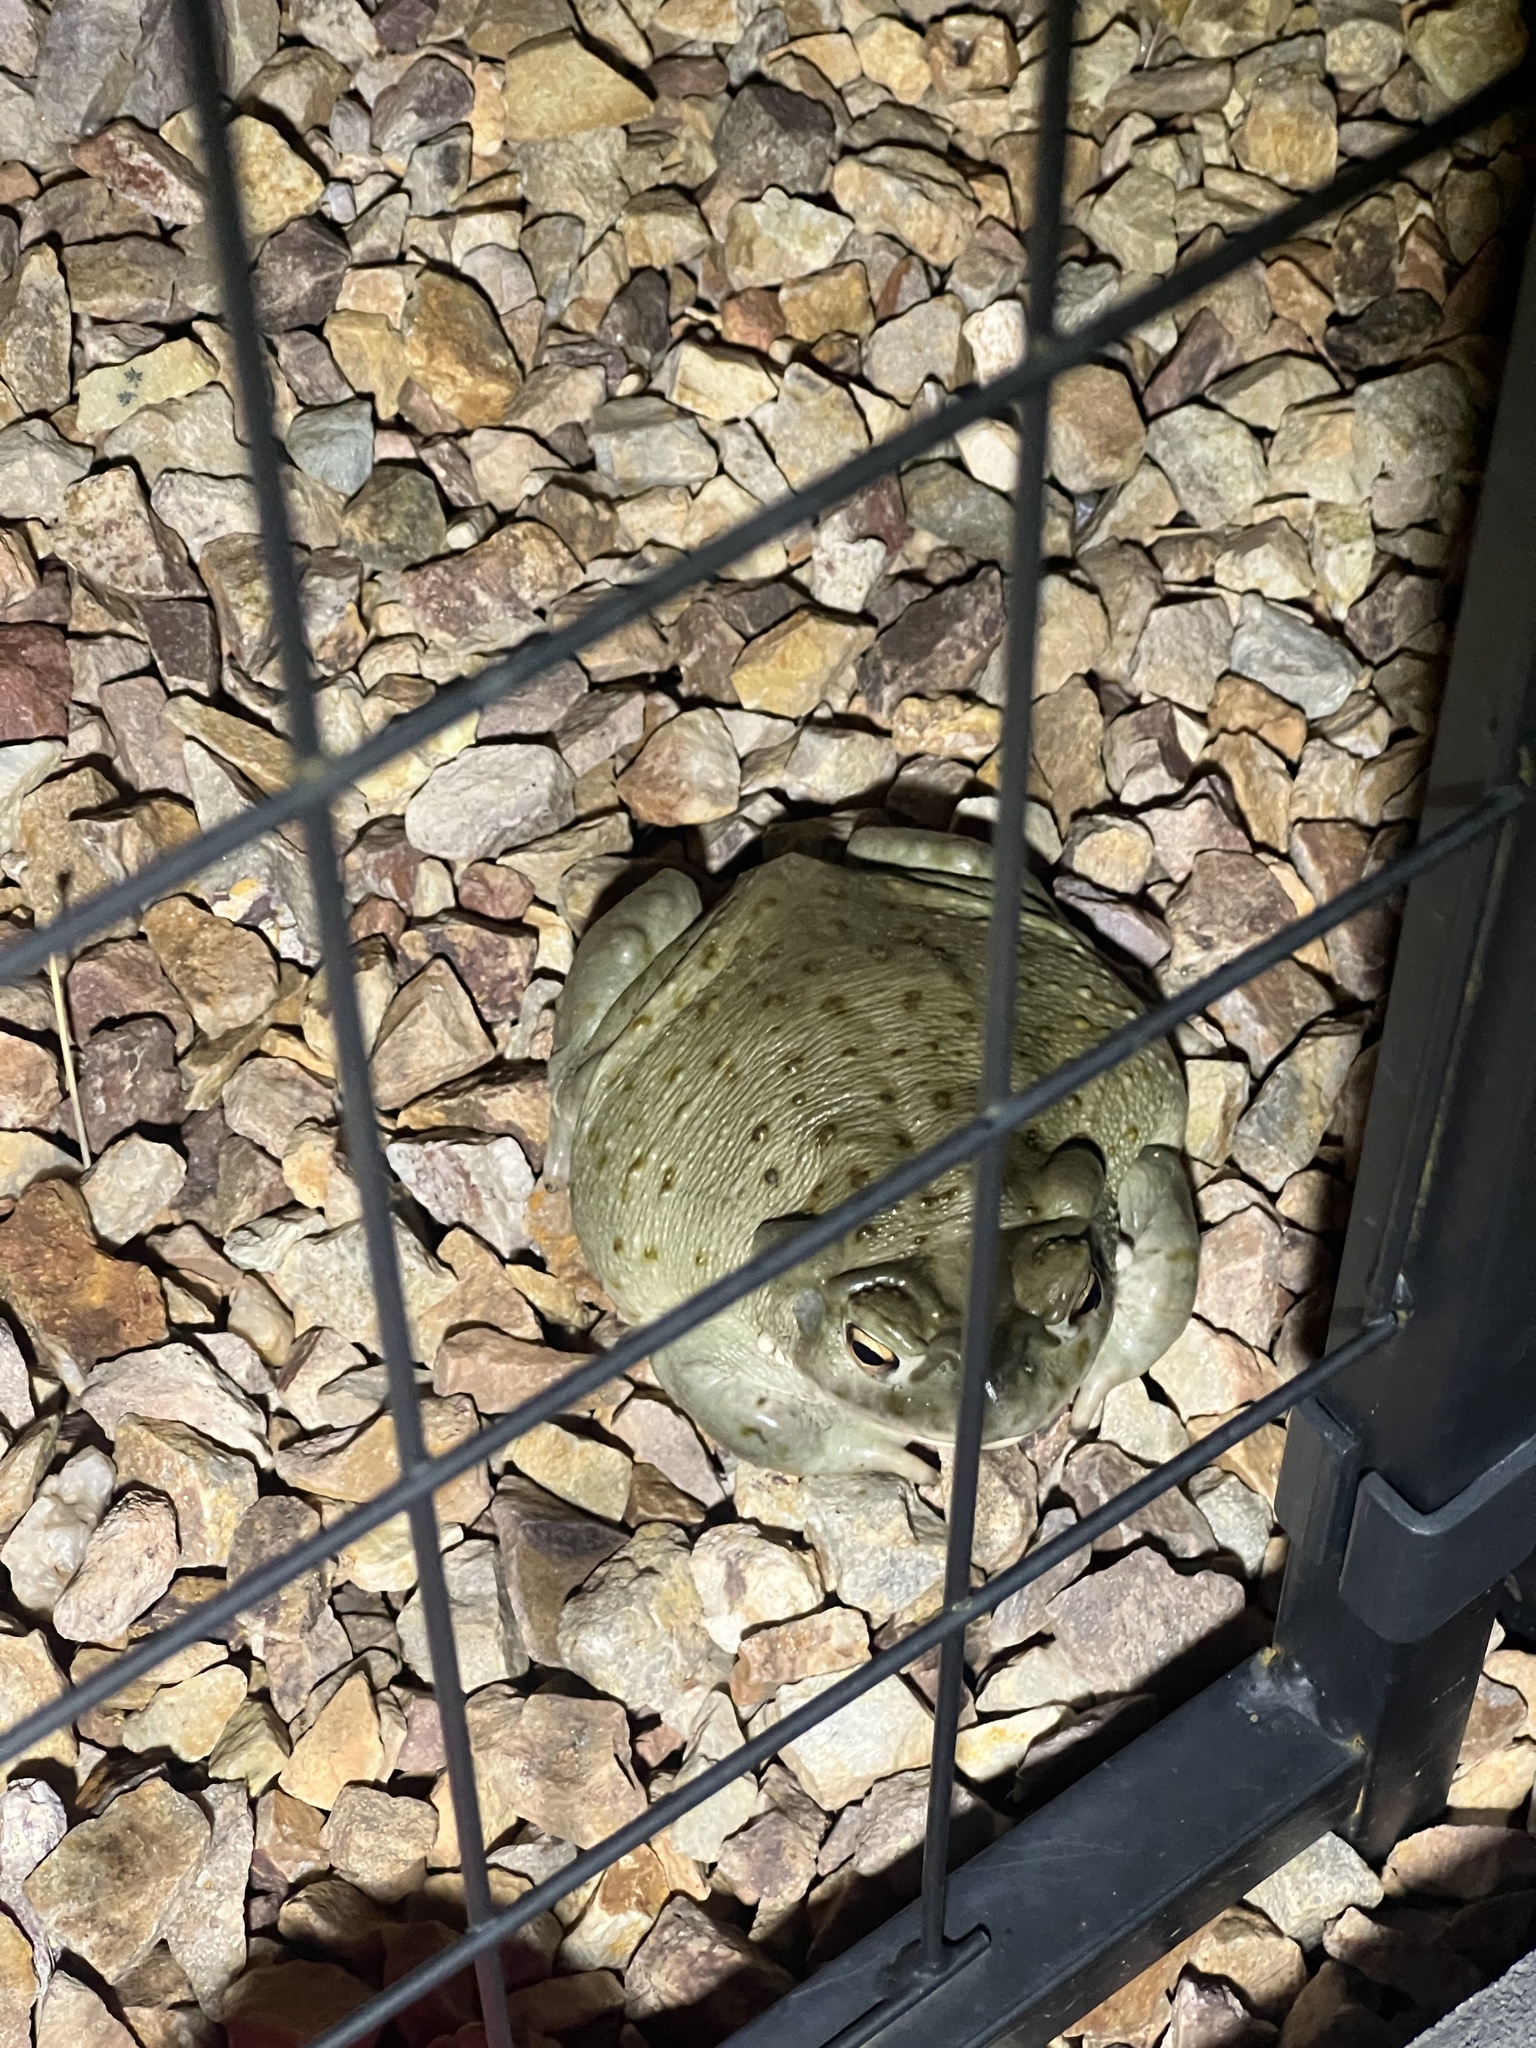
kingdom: Animalia
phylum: Chordata
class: Amphibia
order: Anura
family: Bufonidae
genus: Incilius
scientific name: Incilius alvarius
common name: Sonoran desert toad
